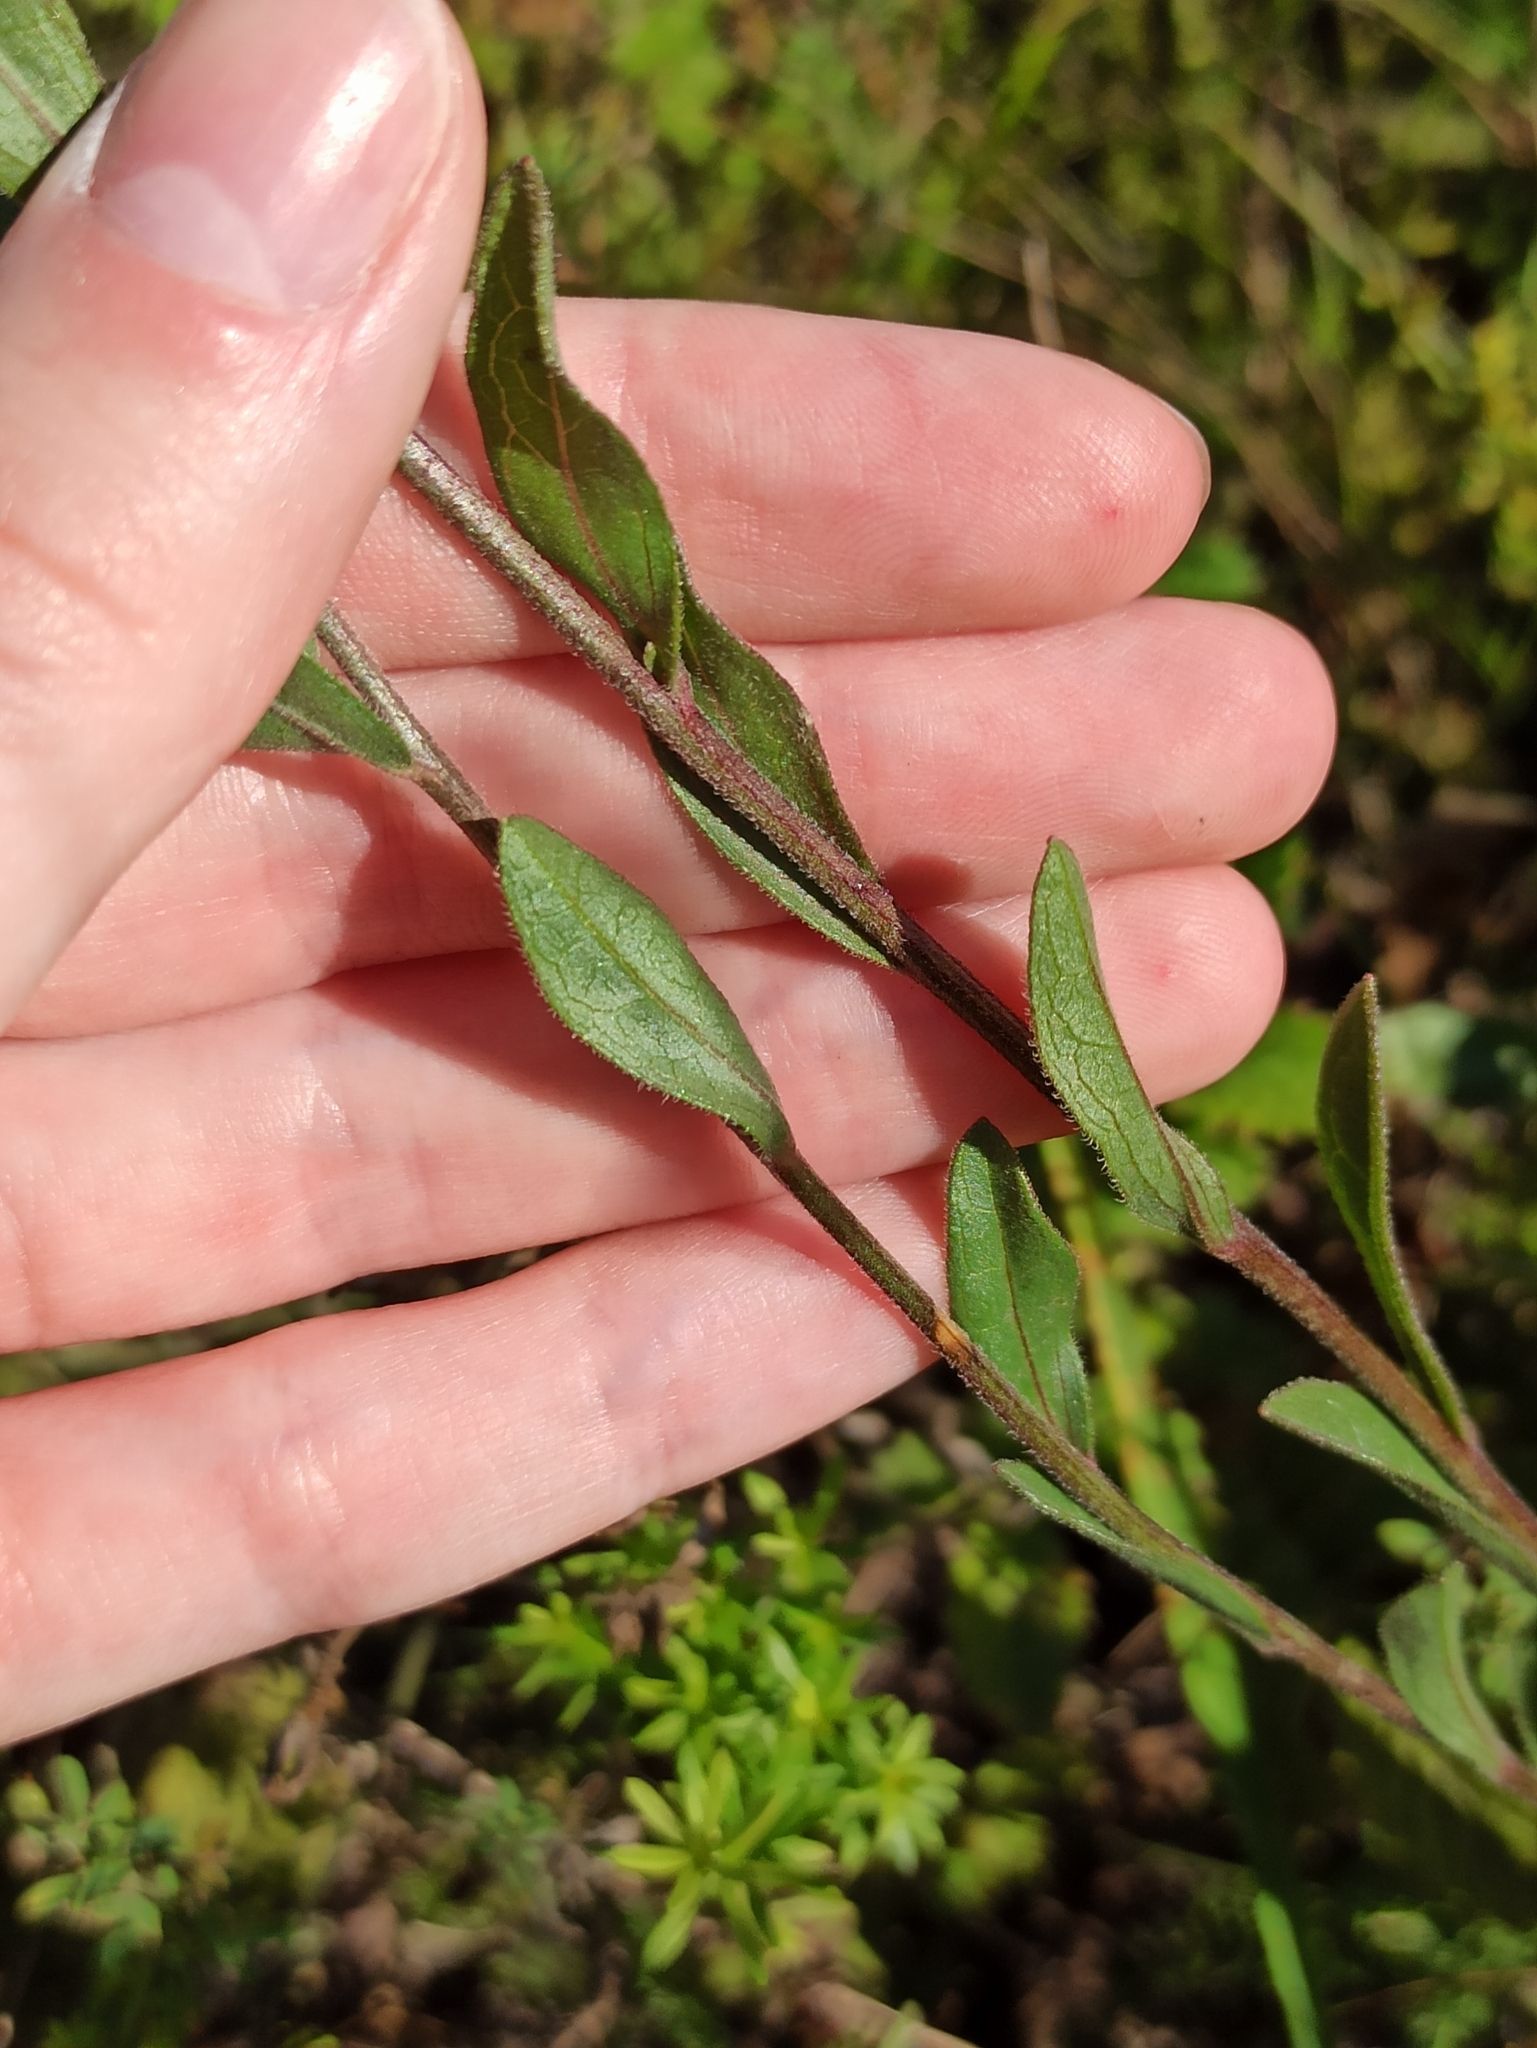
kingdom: Plantae
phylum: Tracheophyta
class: Magnoliopsida
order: Asterales
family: Asteraceae
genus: Aster
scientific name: Aster amellus
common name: European michaelmas daisy
